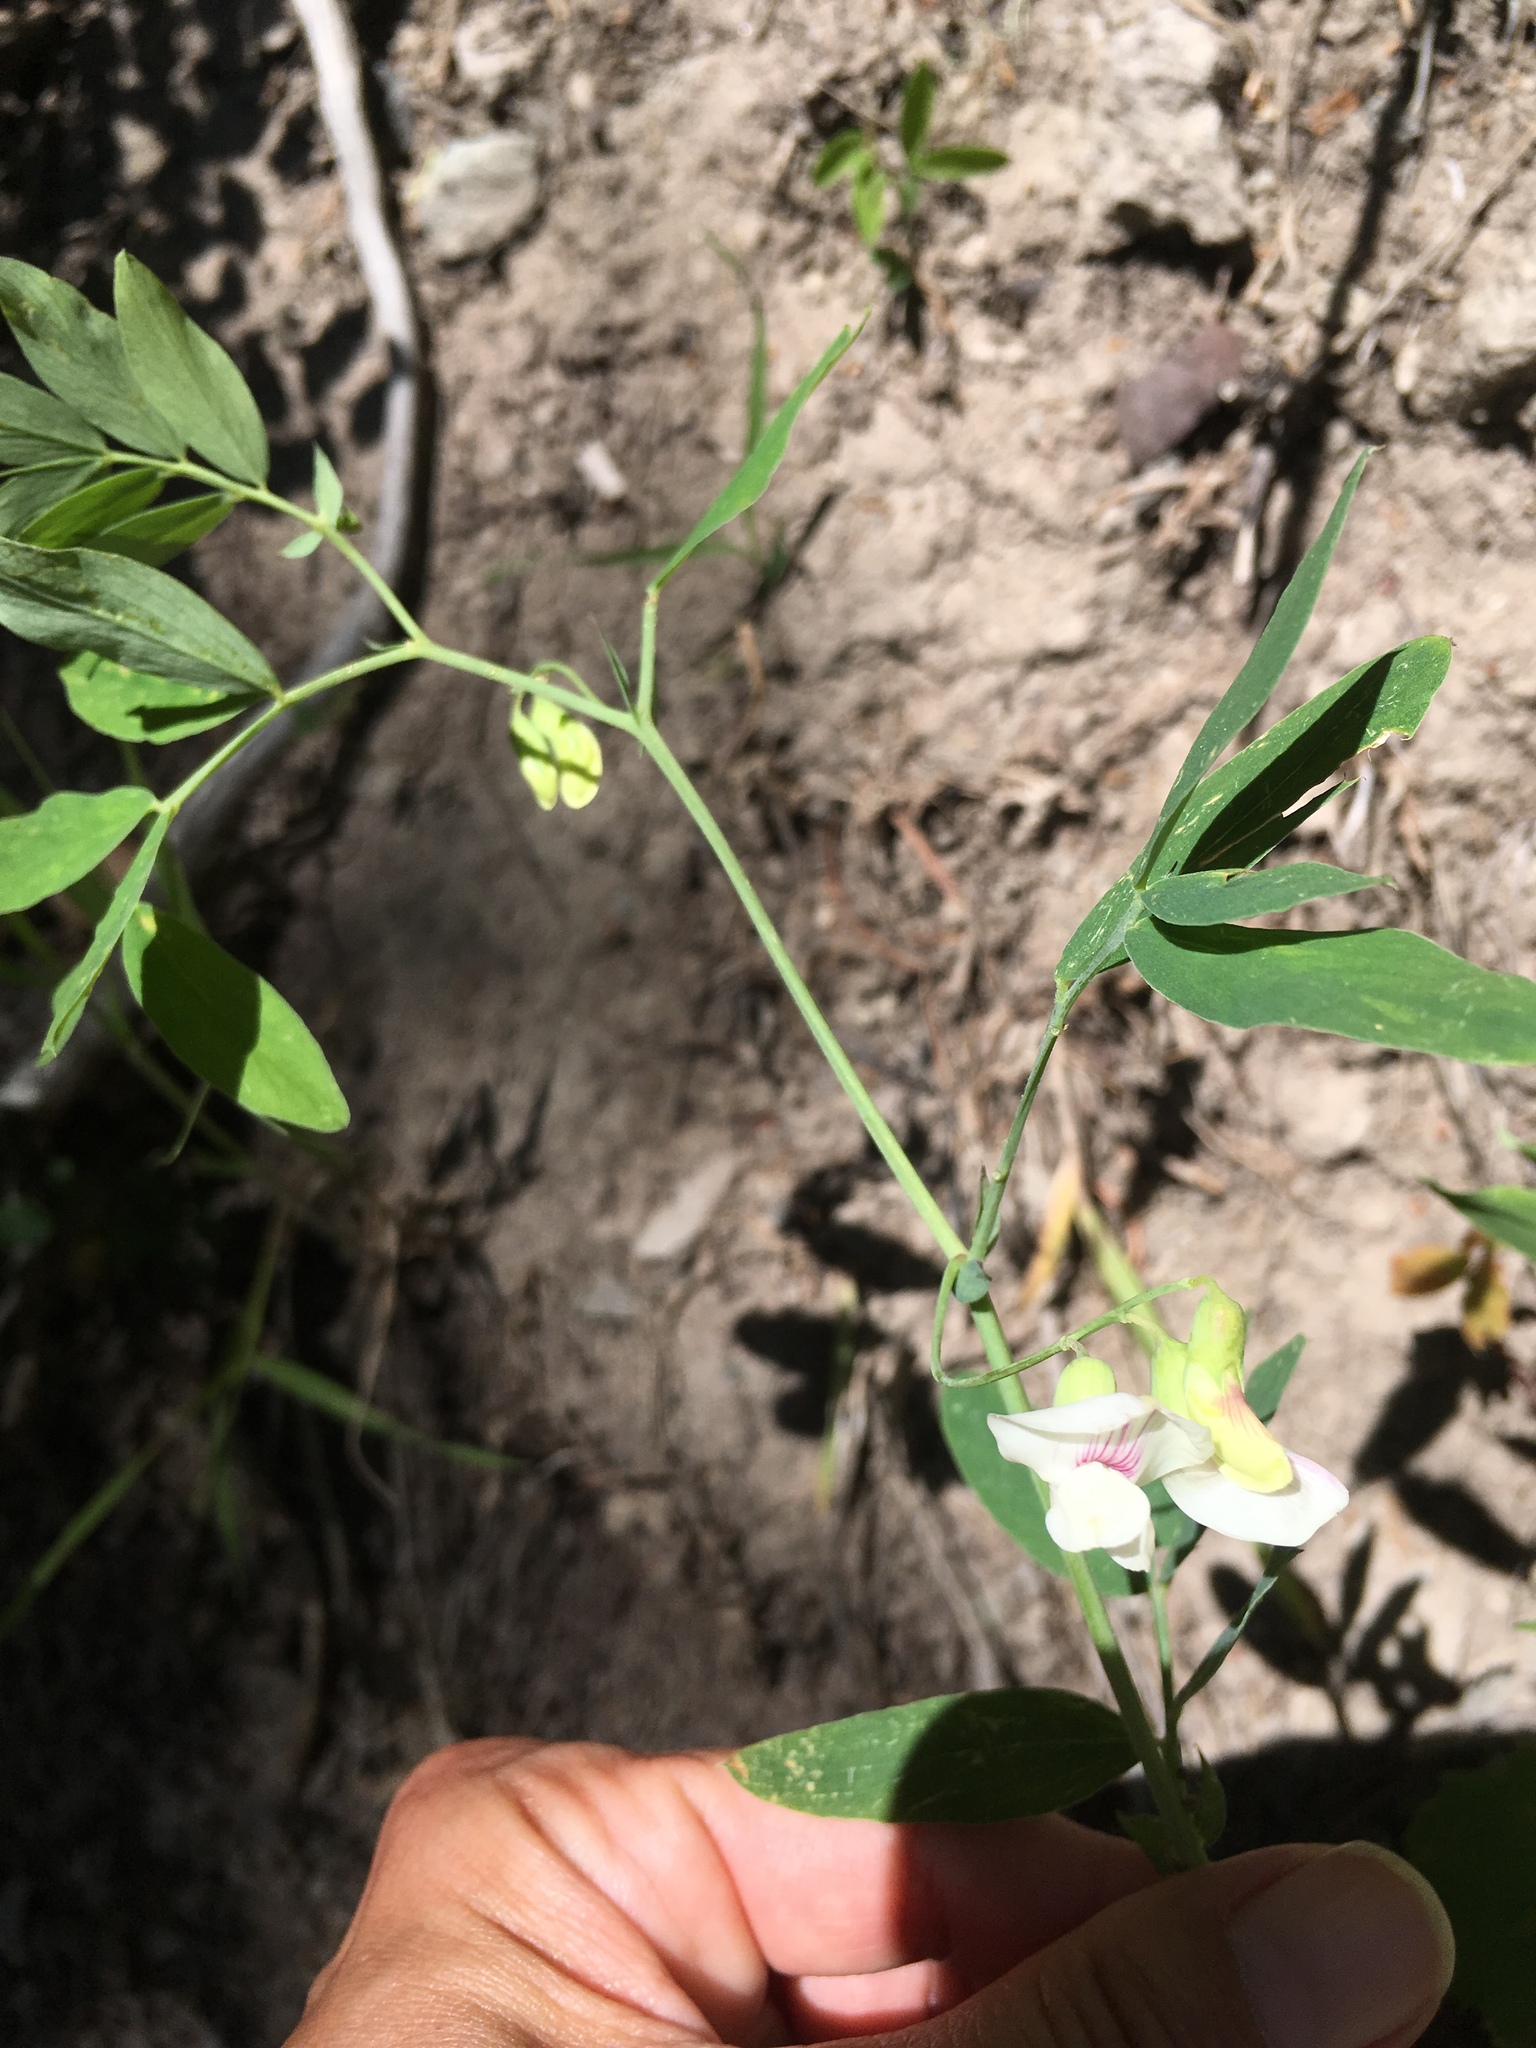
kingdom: Plantae
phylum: Tracheophyta
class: Magnoliopsida
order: Fabales
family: Fabaceae
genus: Lathyrus
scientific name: Lathyrus lanszwertii
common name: Lanszwert's vetchling
